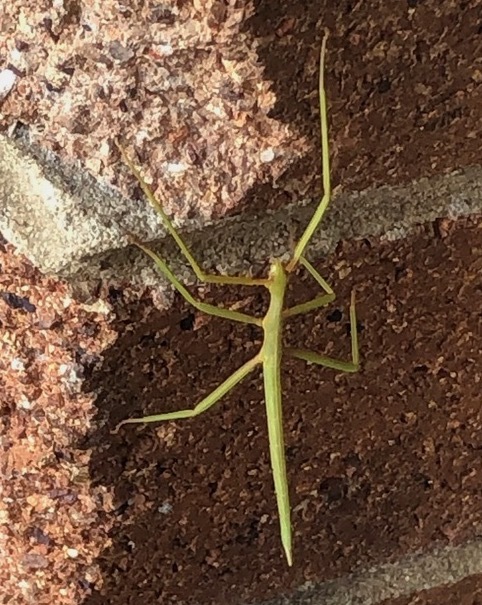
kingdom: Animalia
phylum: Arthropoda
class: Insecta
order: Phasmida
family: Phasmatidae
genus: Didymuria
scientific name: Didymuria violescens
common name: Spur-legged stick-insect
